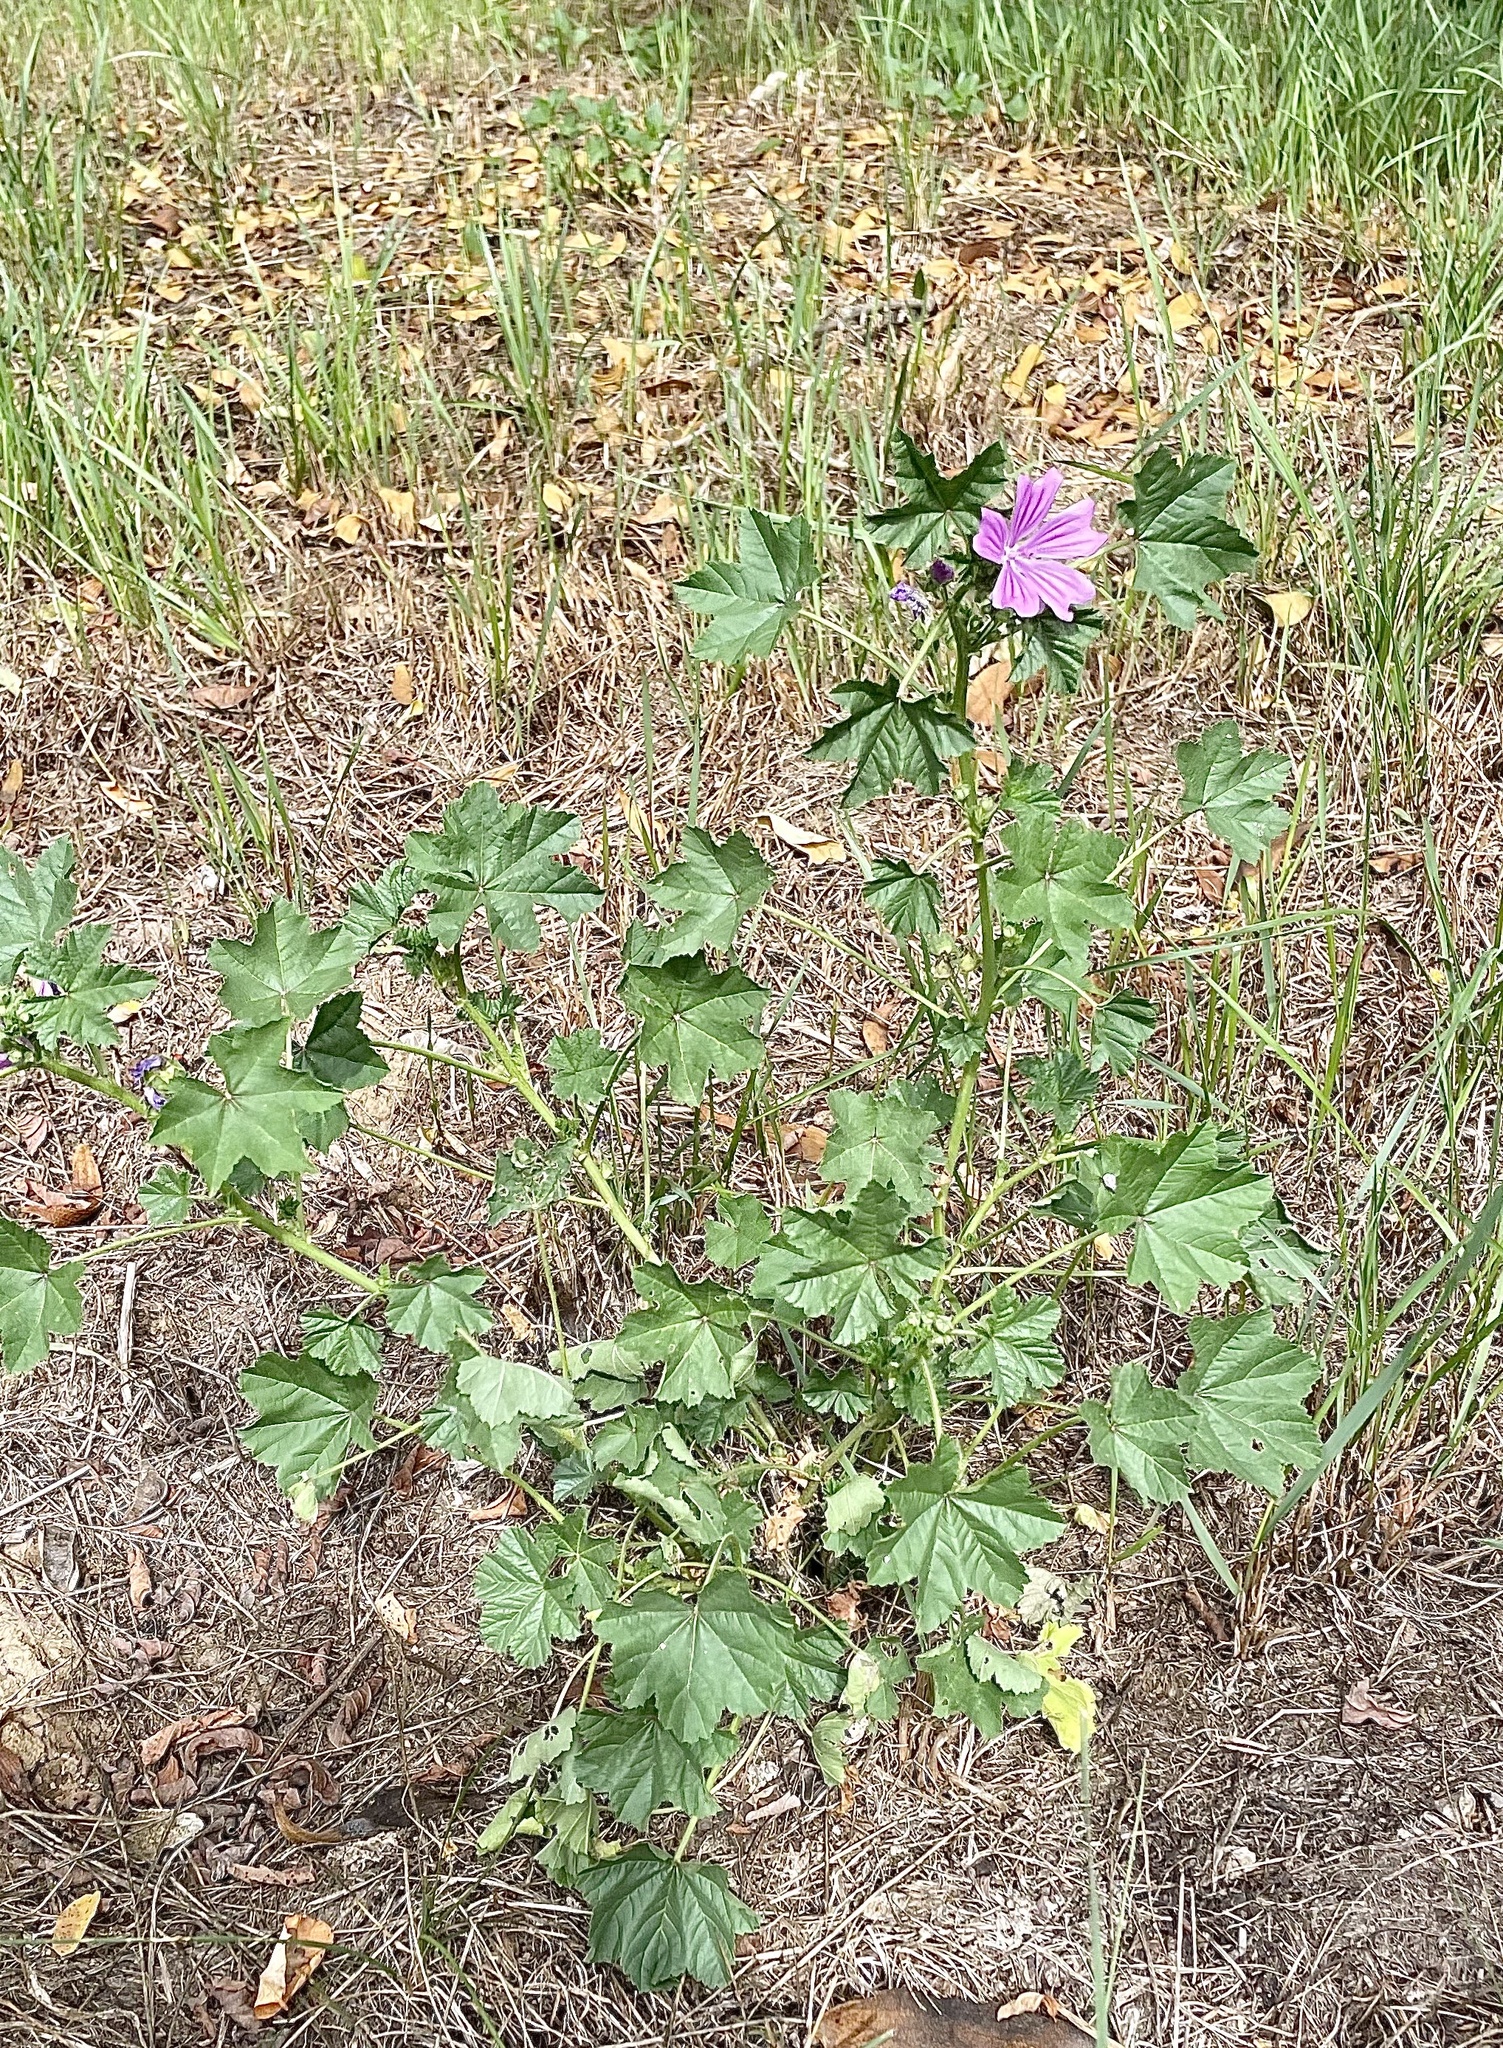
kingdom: Plantae
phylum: Tracheophyta
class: Magnoliopsida
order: Malvales
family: Malvaceae
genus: Malva
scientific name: Malva sylvestris
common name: Common mallow
